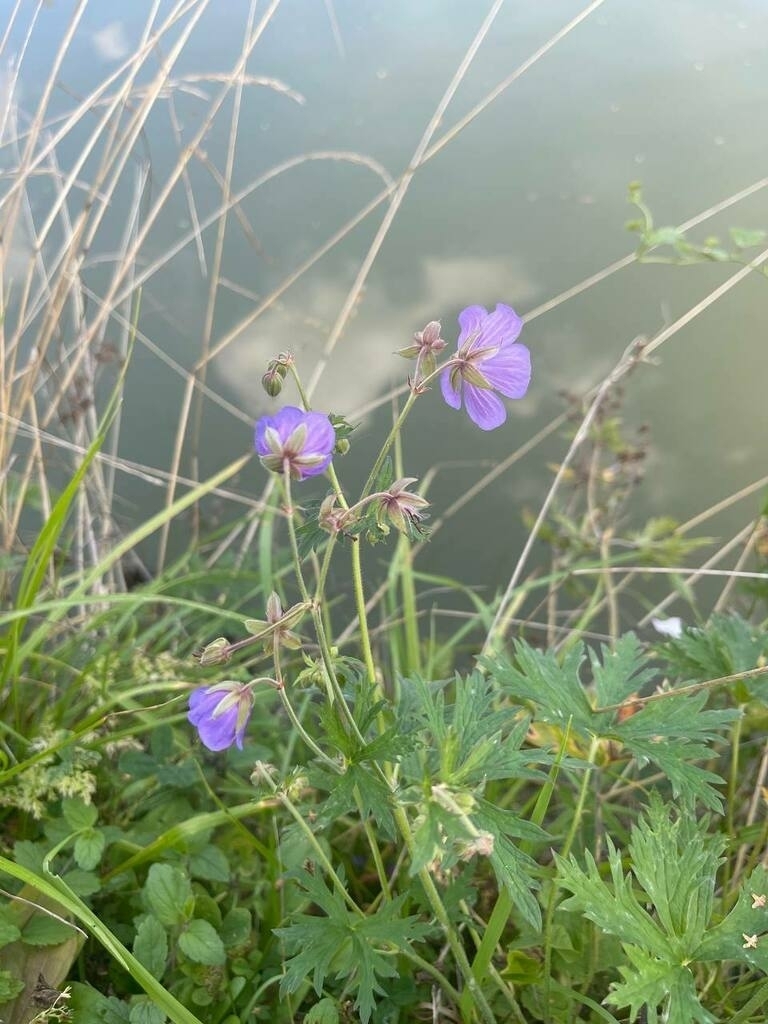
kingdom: Plantae
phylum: Tracheophyta
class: Magnoliopsida
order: Geraniales
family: Geraniaceae
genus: Geranium
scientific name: Geranium pratense
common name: Meadow crane's-bill
